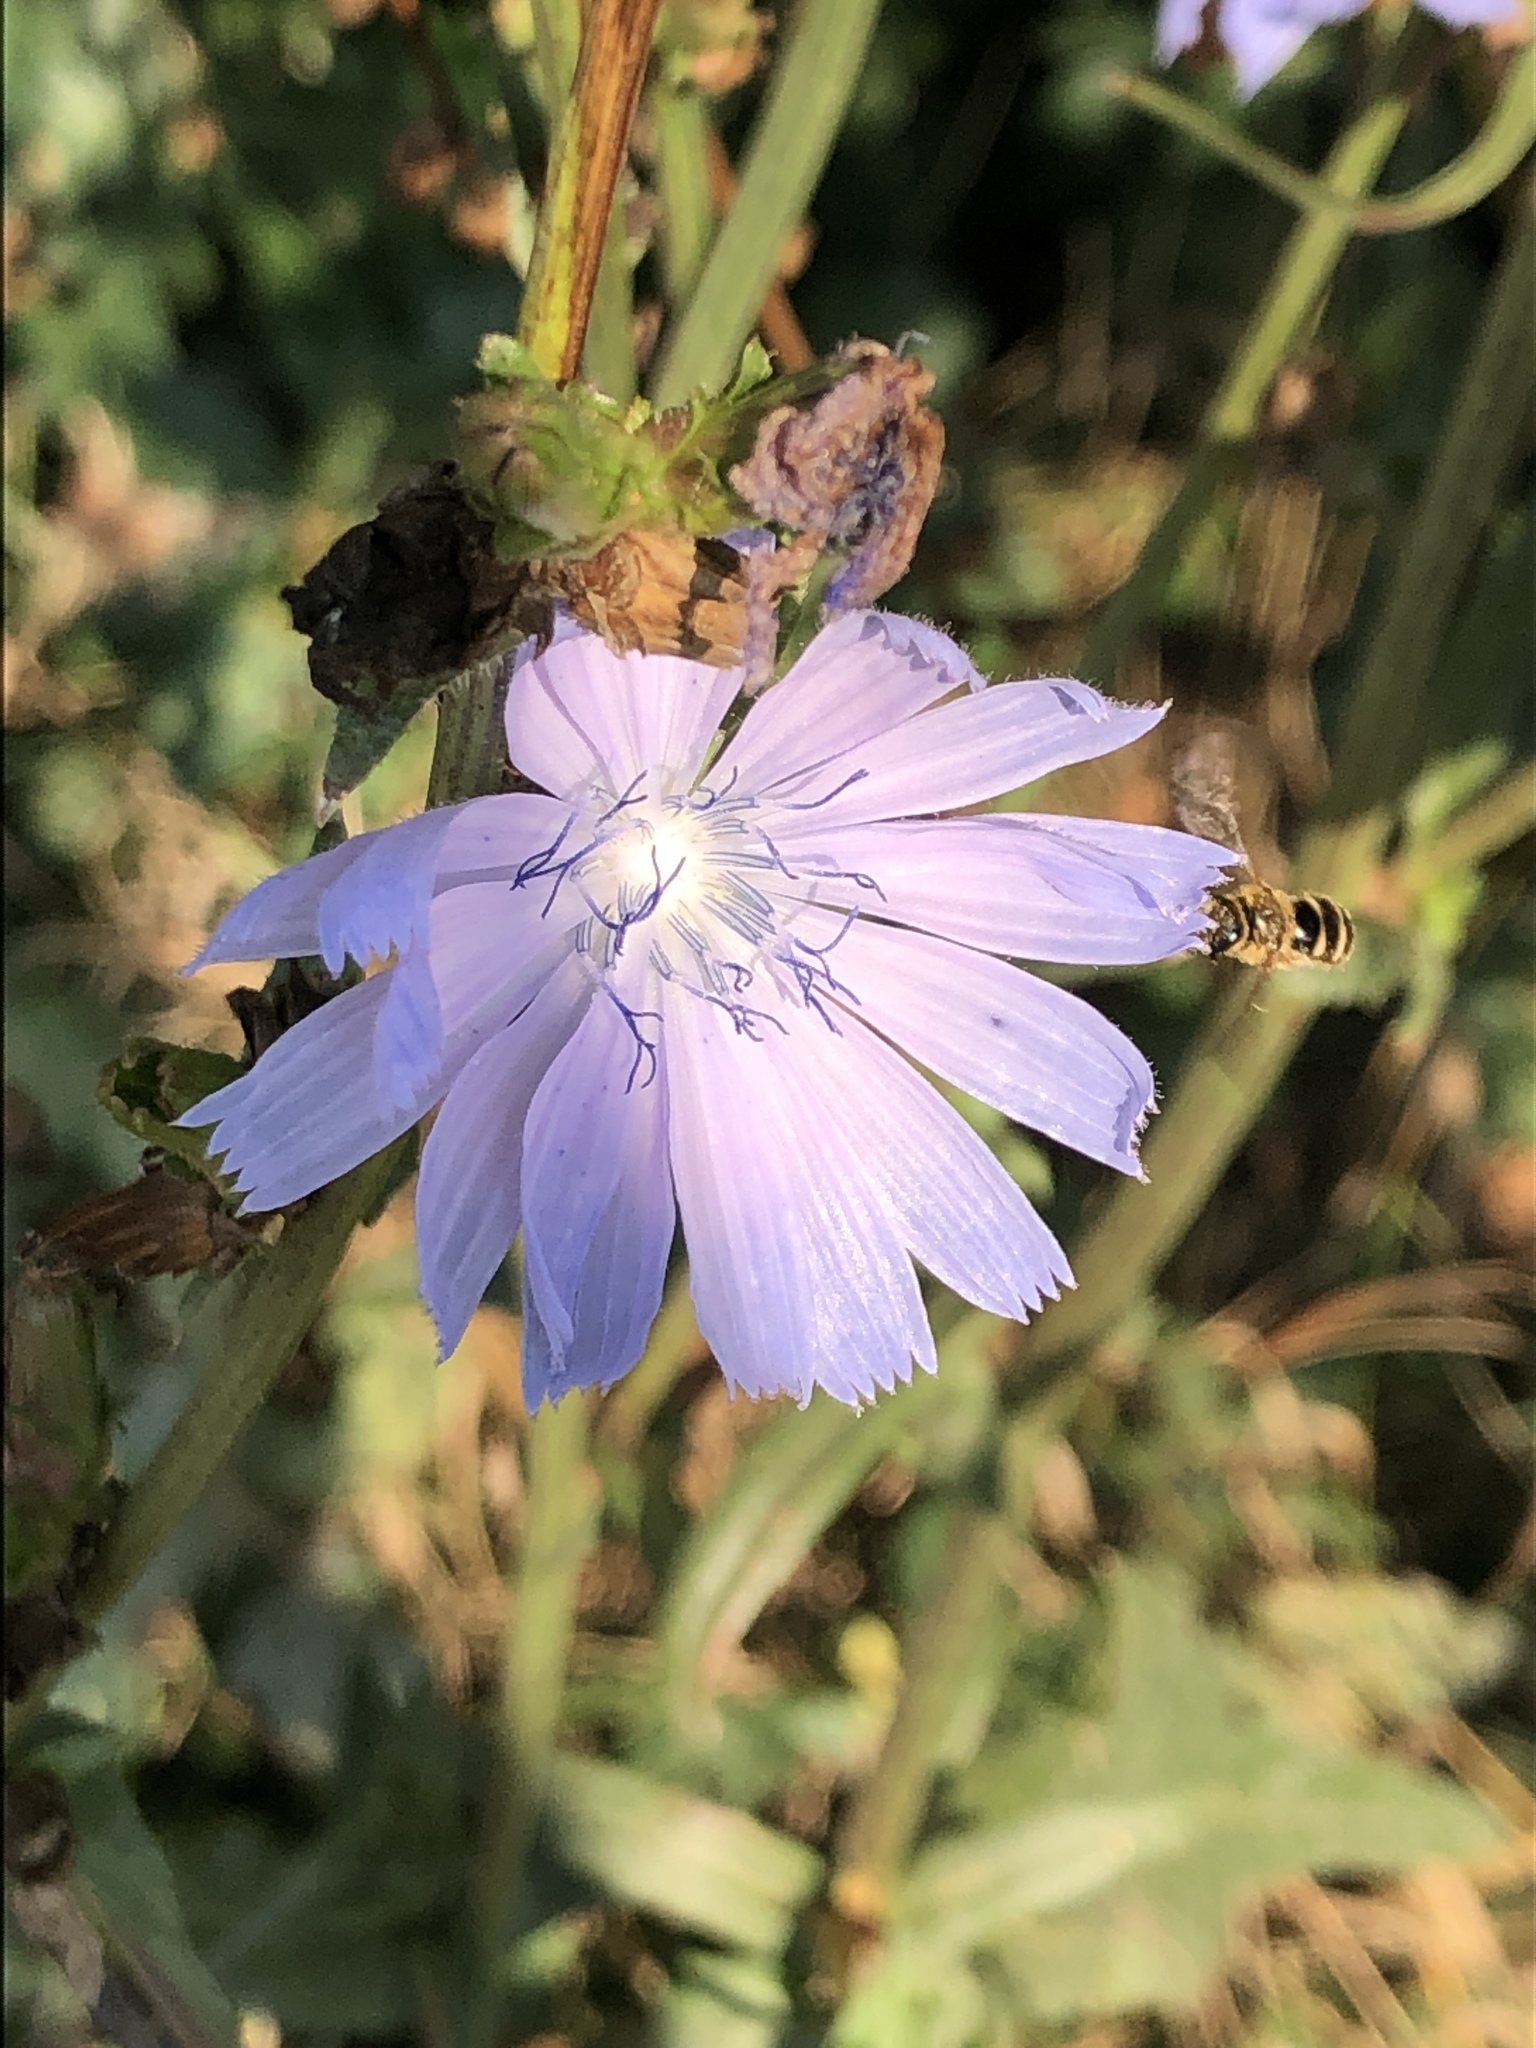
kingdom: Plantae
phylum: Tracheophyta
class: Magnoliopsida
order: Asterales
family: Asteraceae
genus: Cichorium
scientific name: Cichorium intybus
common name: Chicory
